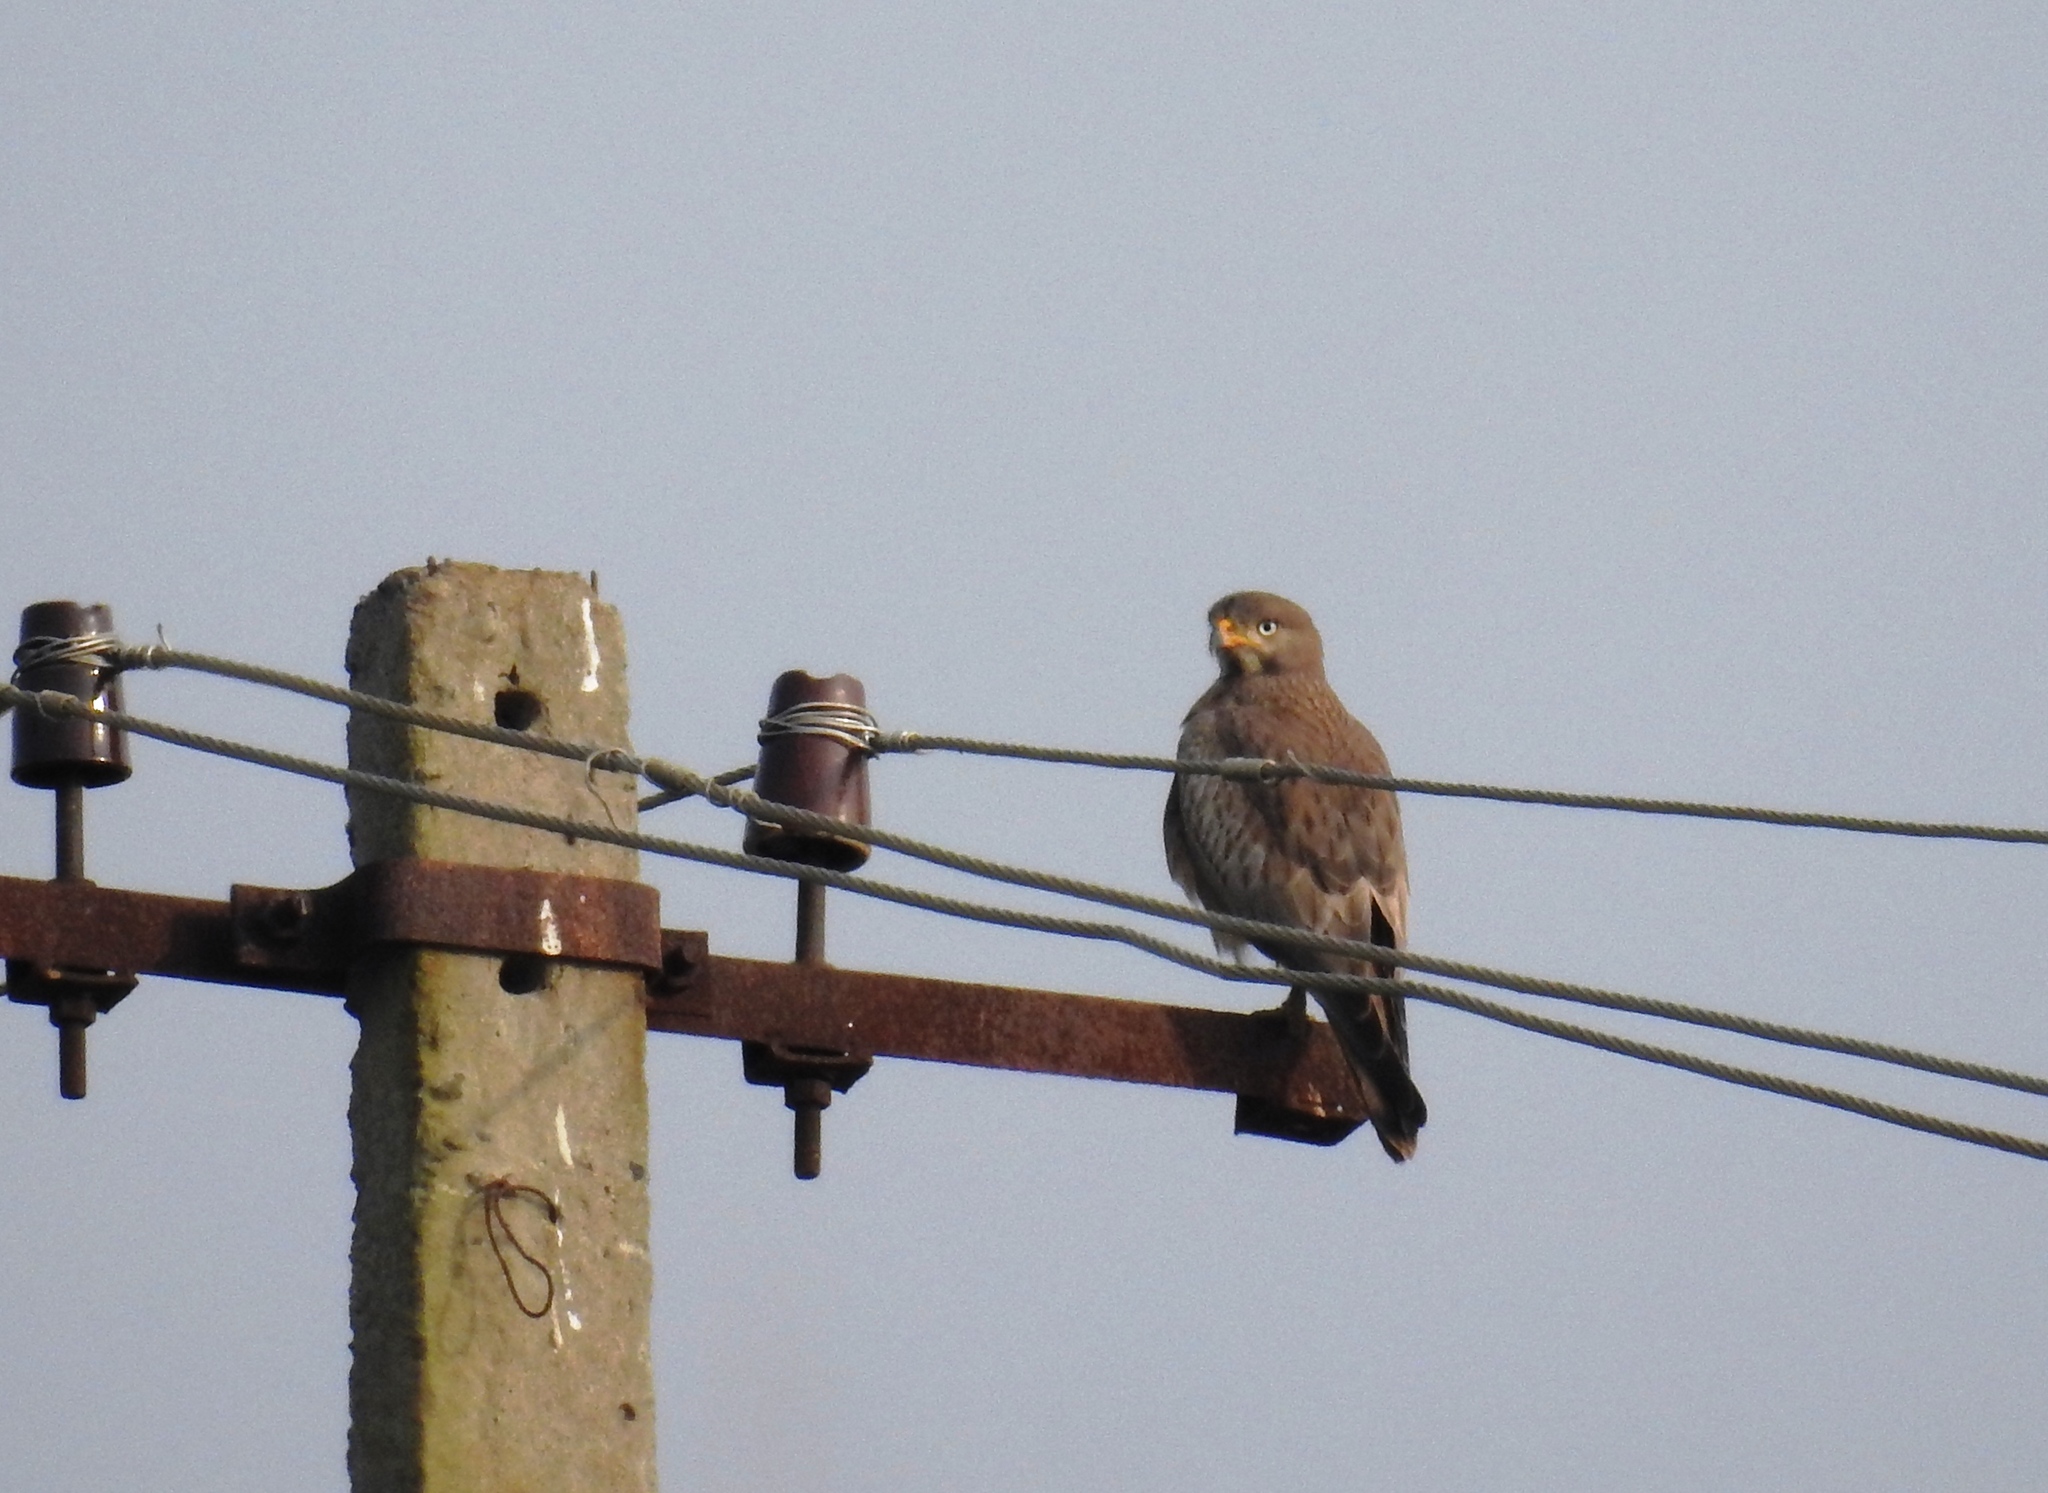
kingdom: Animalia
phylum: Chordata
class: Aves
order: Accipitriformes
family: Accipitridae
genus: Butastur
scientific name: Butastur teesa
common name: White-eyed buzzard
